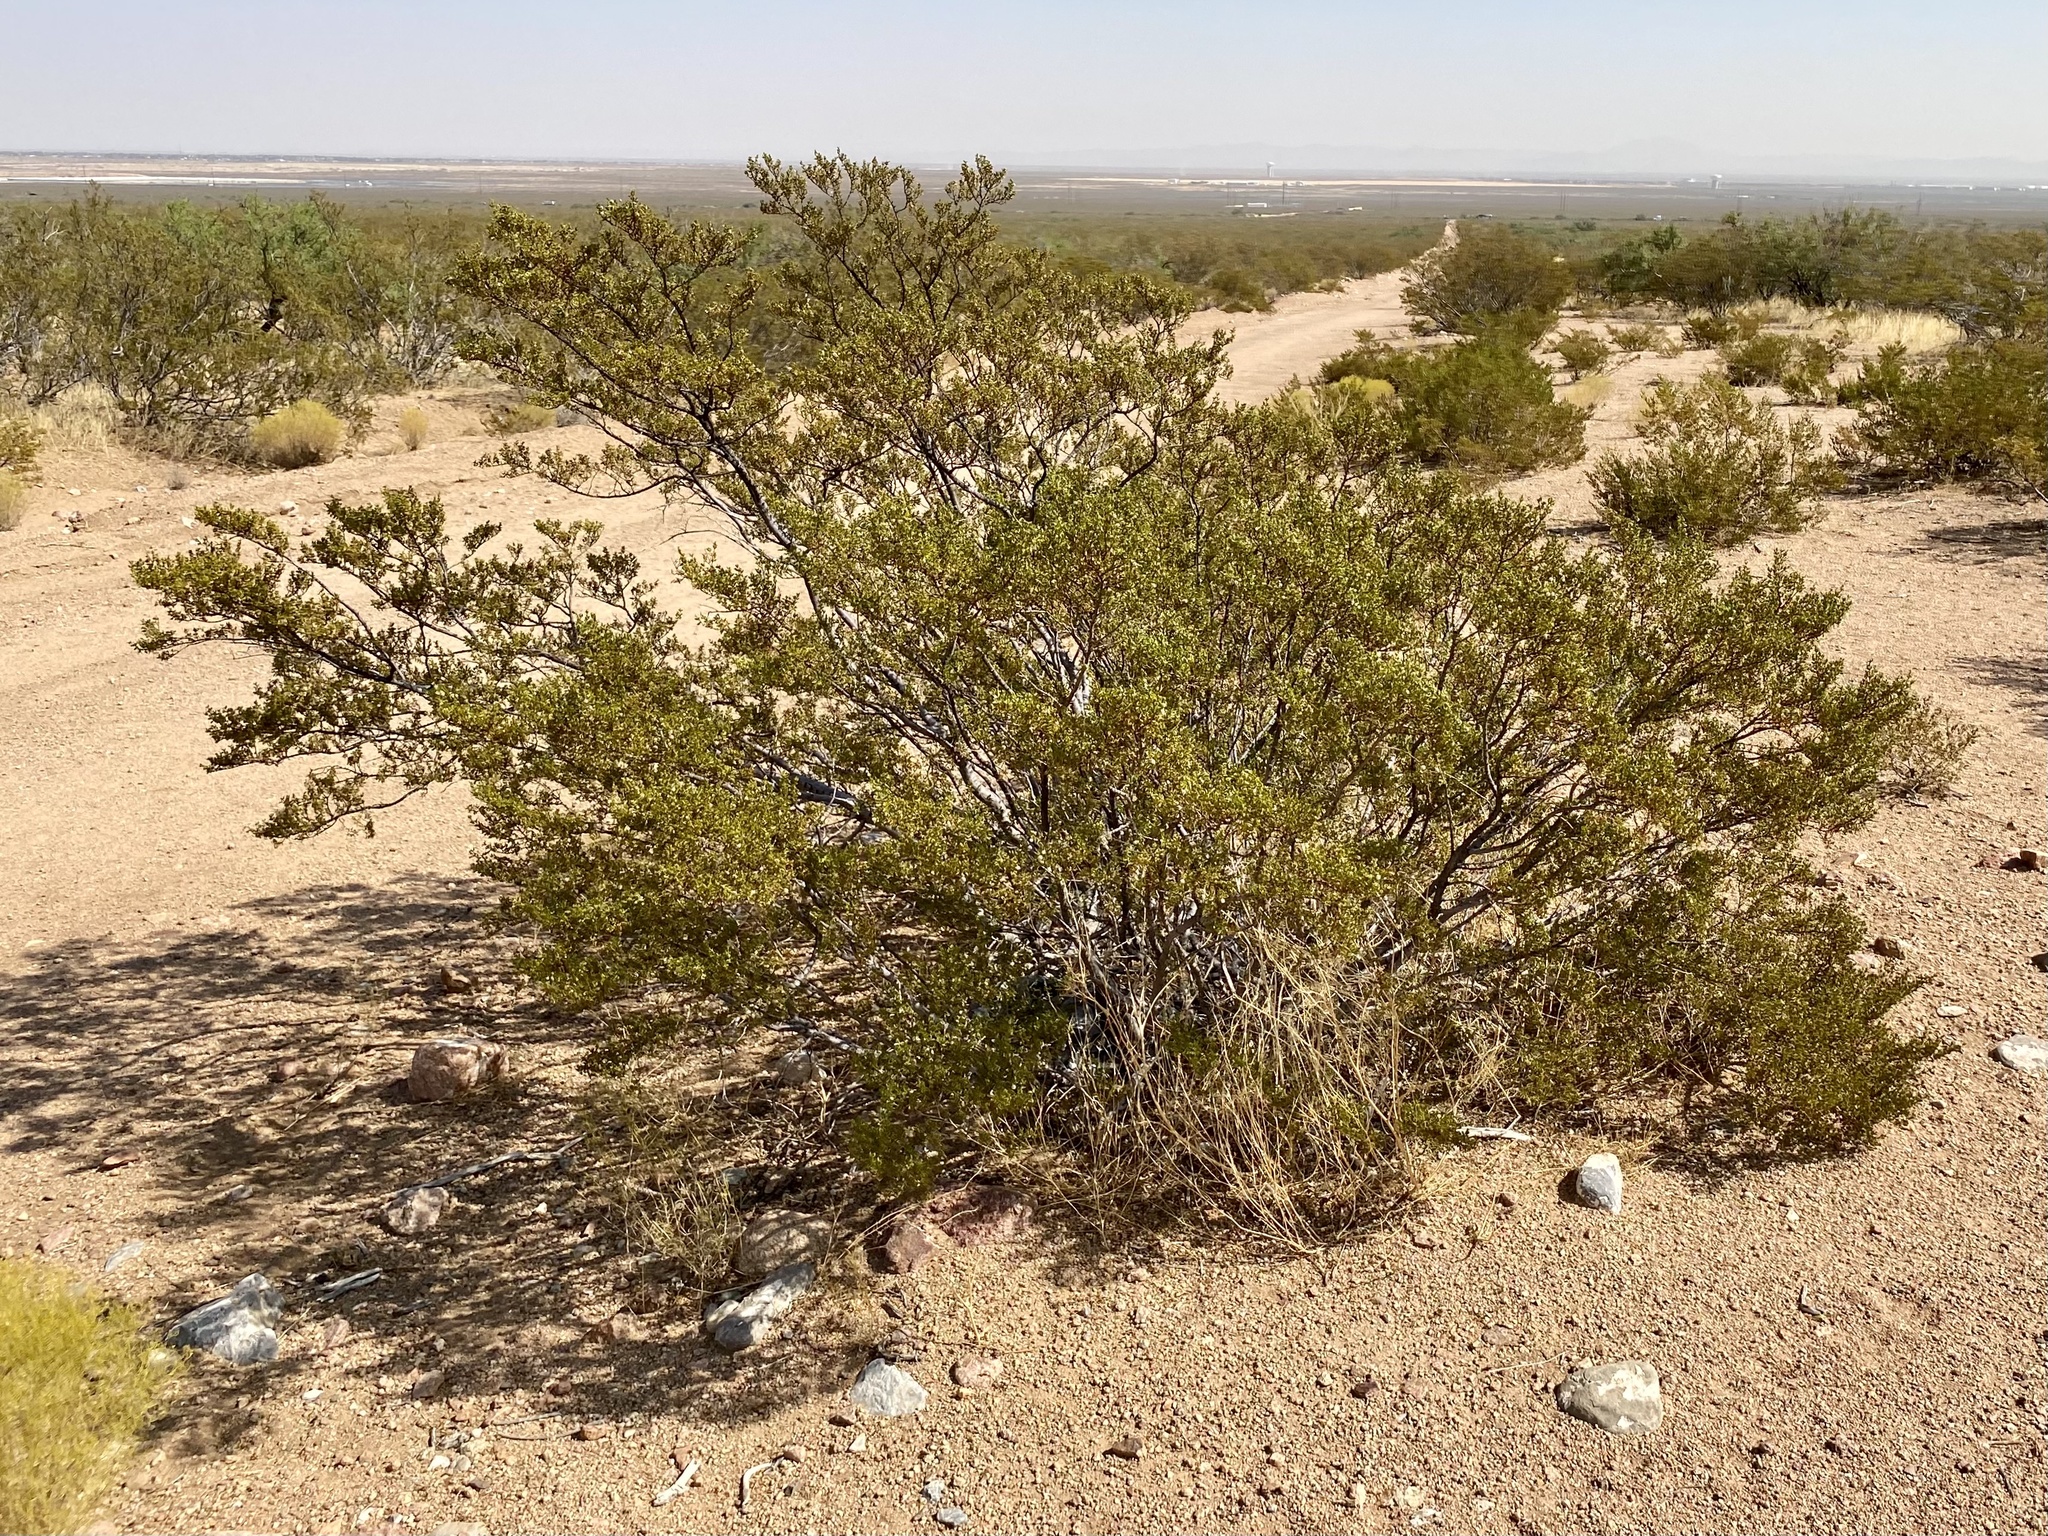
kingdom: Plantae
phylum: Tracheophyta
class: Magnoliopsida
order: Zygophyllales
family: Zygophyllaceae
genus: Larrea
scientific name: Larrea tridentata
